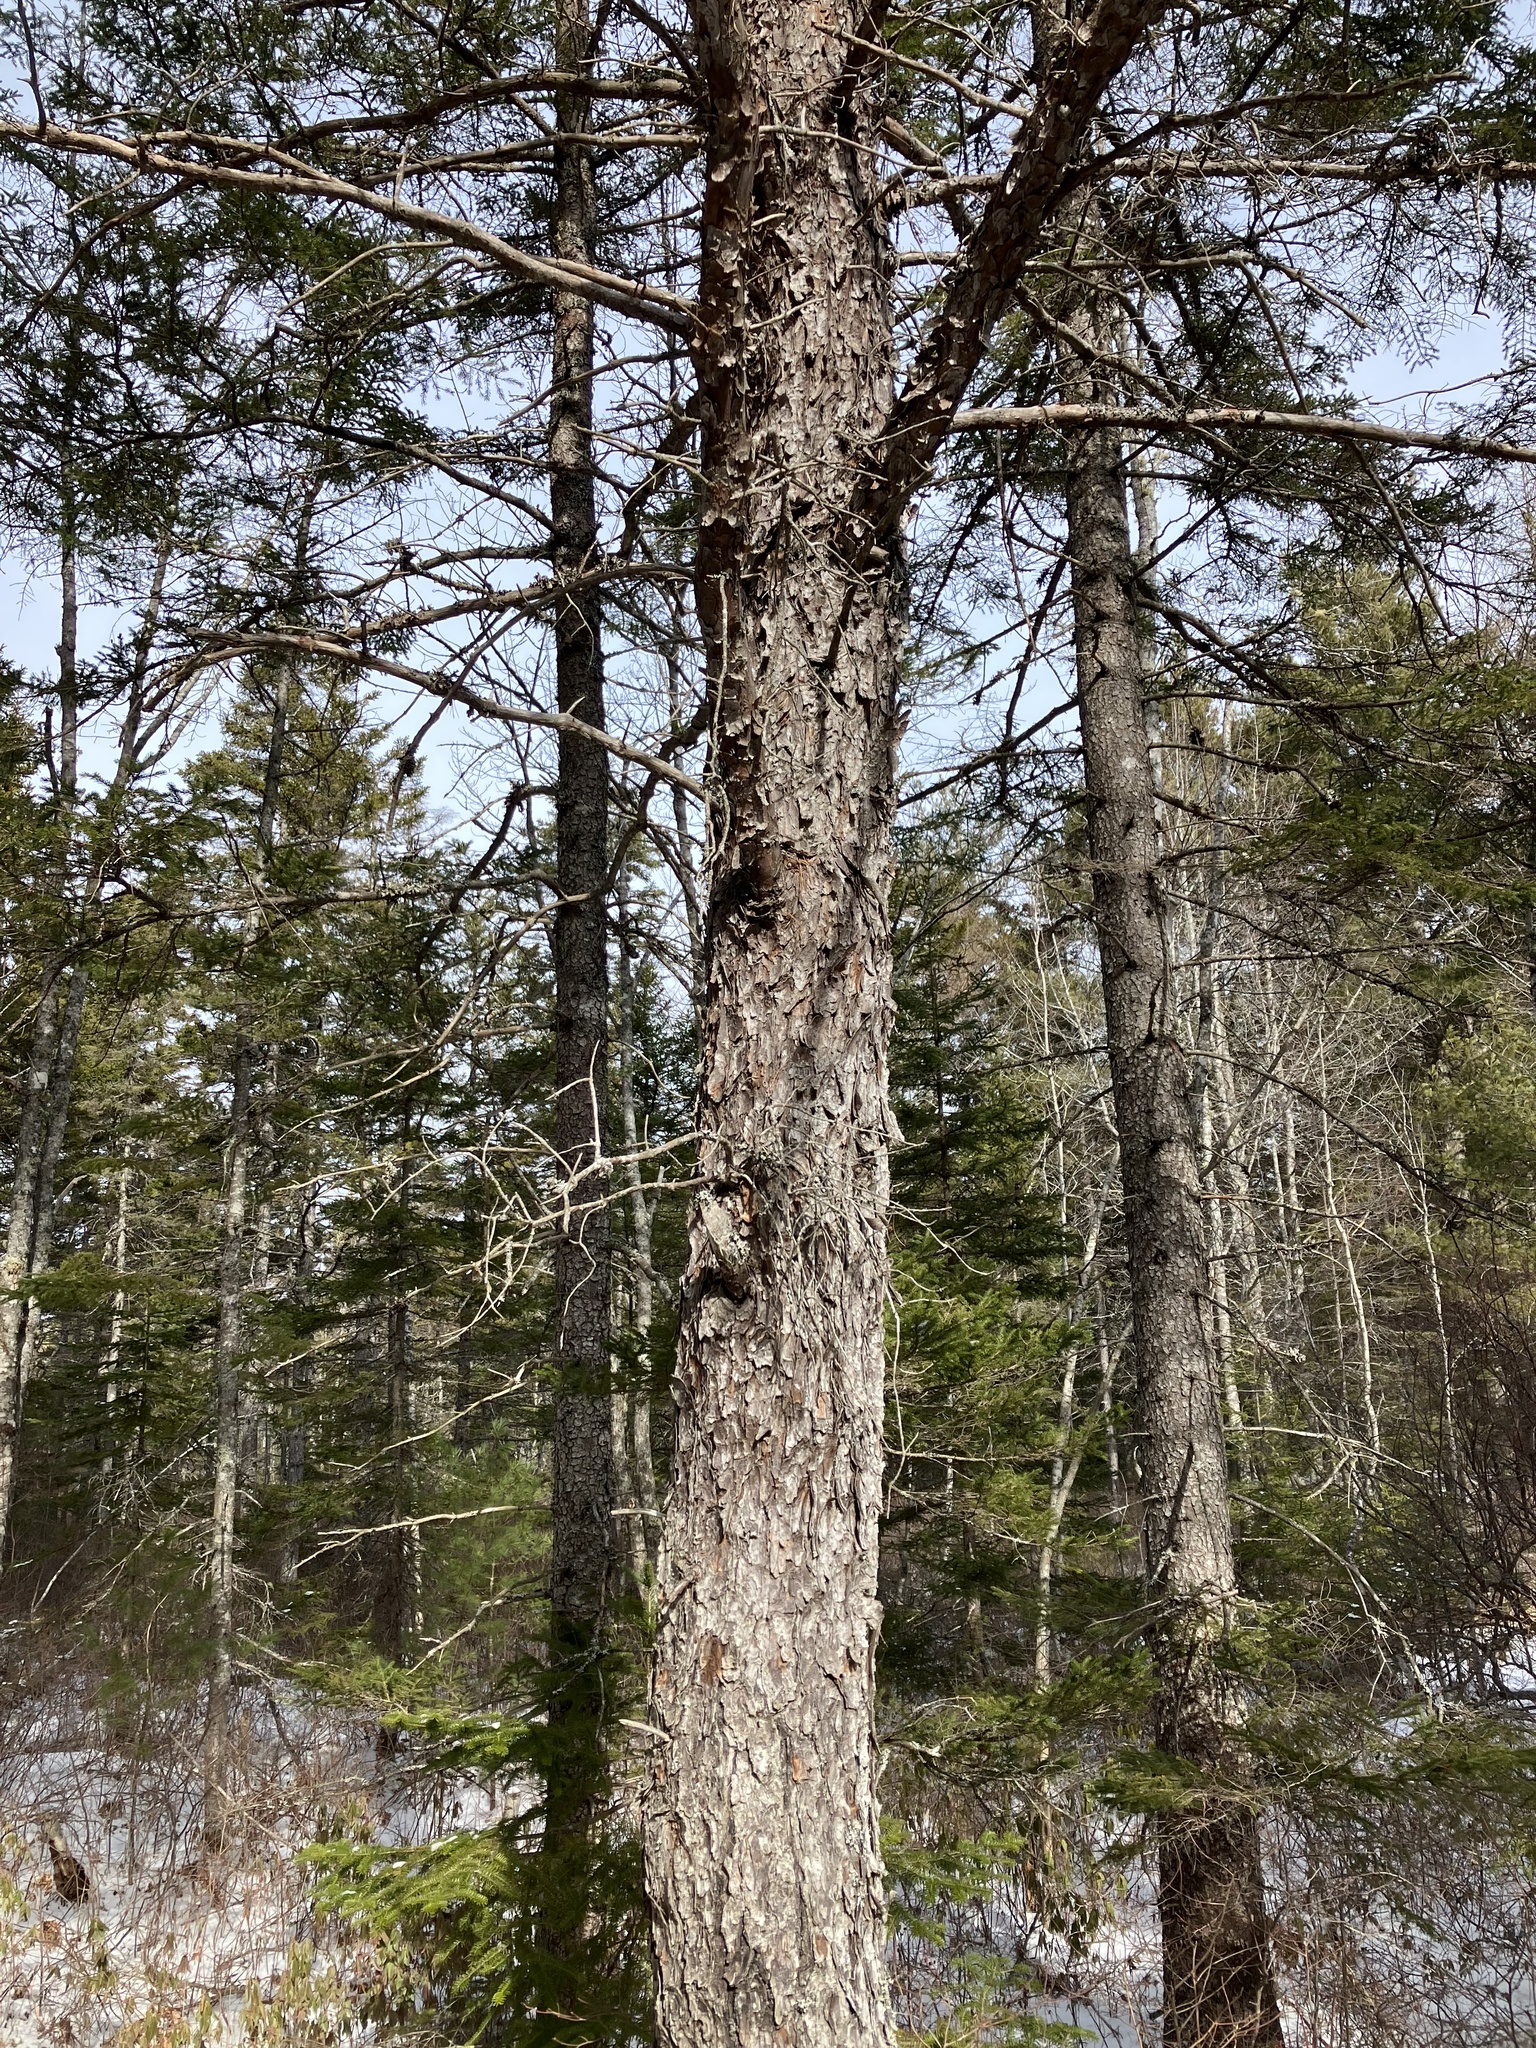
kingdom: Plantae
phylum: Tracheophyta
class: Pinopsida
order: Pinales
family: Pinaceae
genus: Pinus
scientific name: Pinus banksiana
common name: Jack pine
